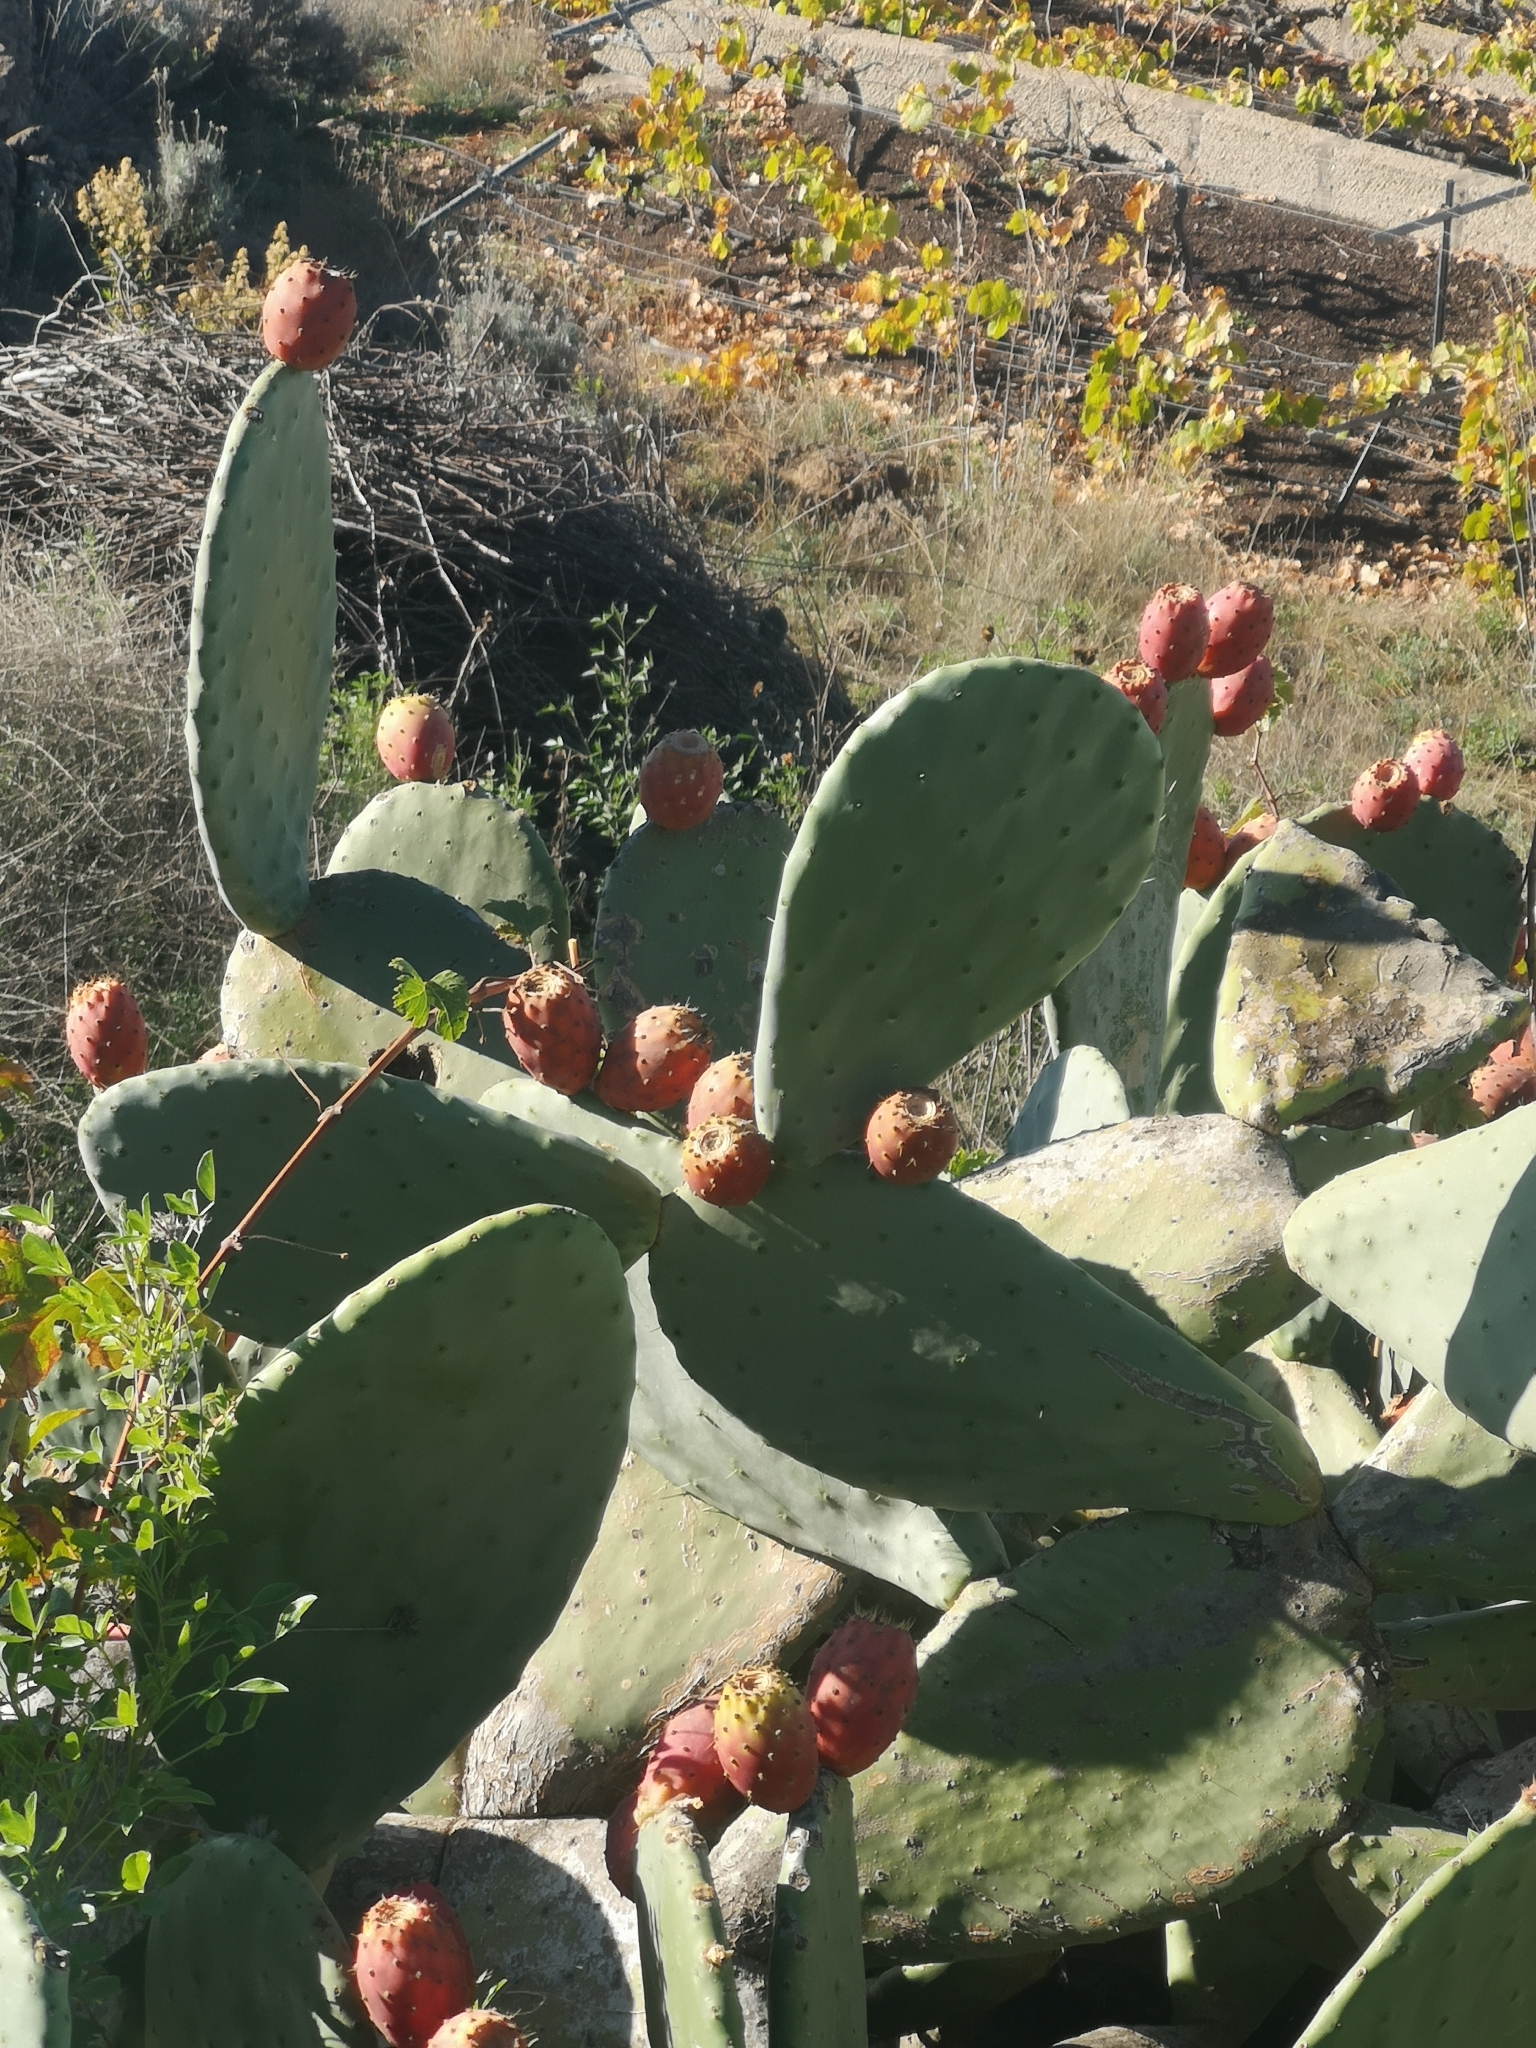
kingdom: Plantae
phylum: Tracheophyta
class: Magnoliopsida
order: Caryophyllales
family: Cactaceae
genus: Opuntia
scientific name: Opuntia ficus-indica
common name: Barbary fig
